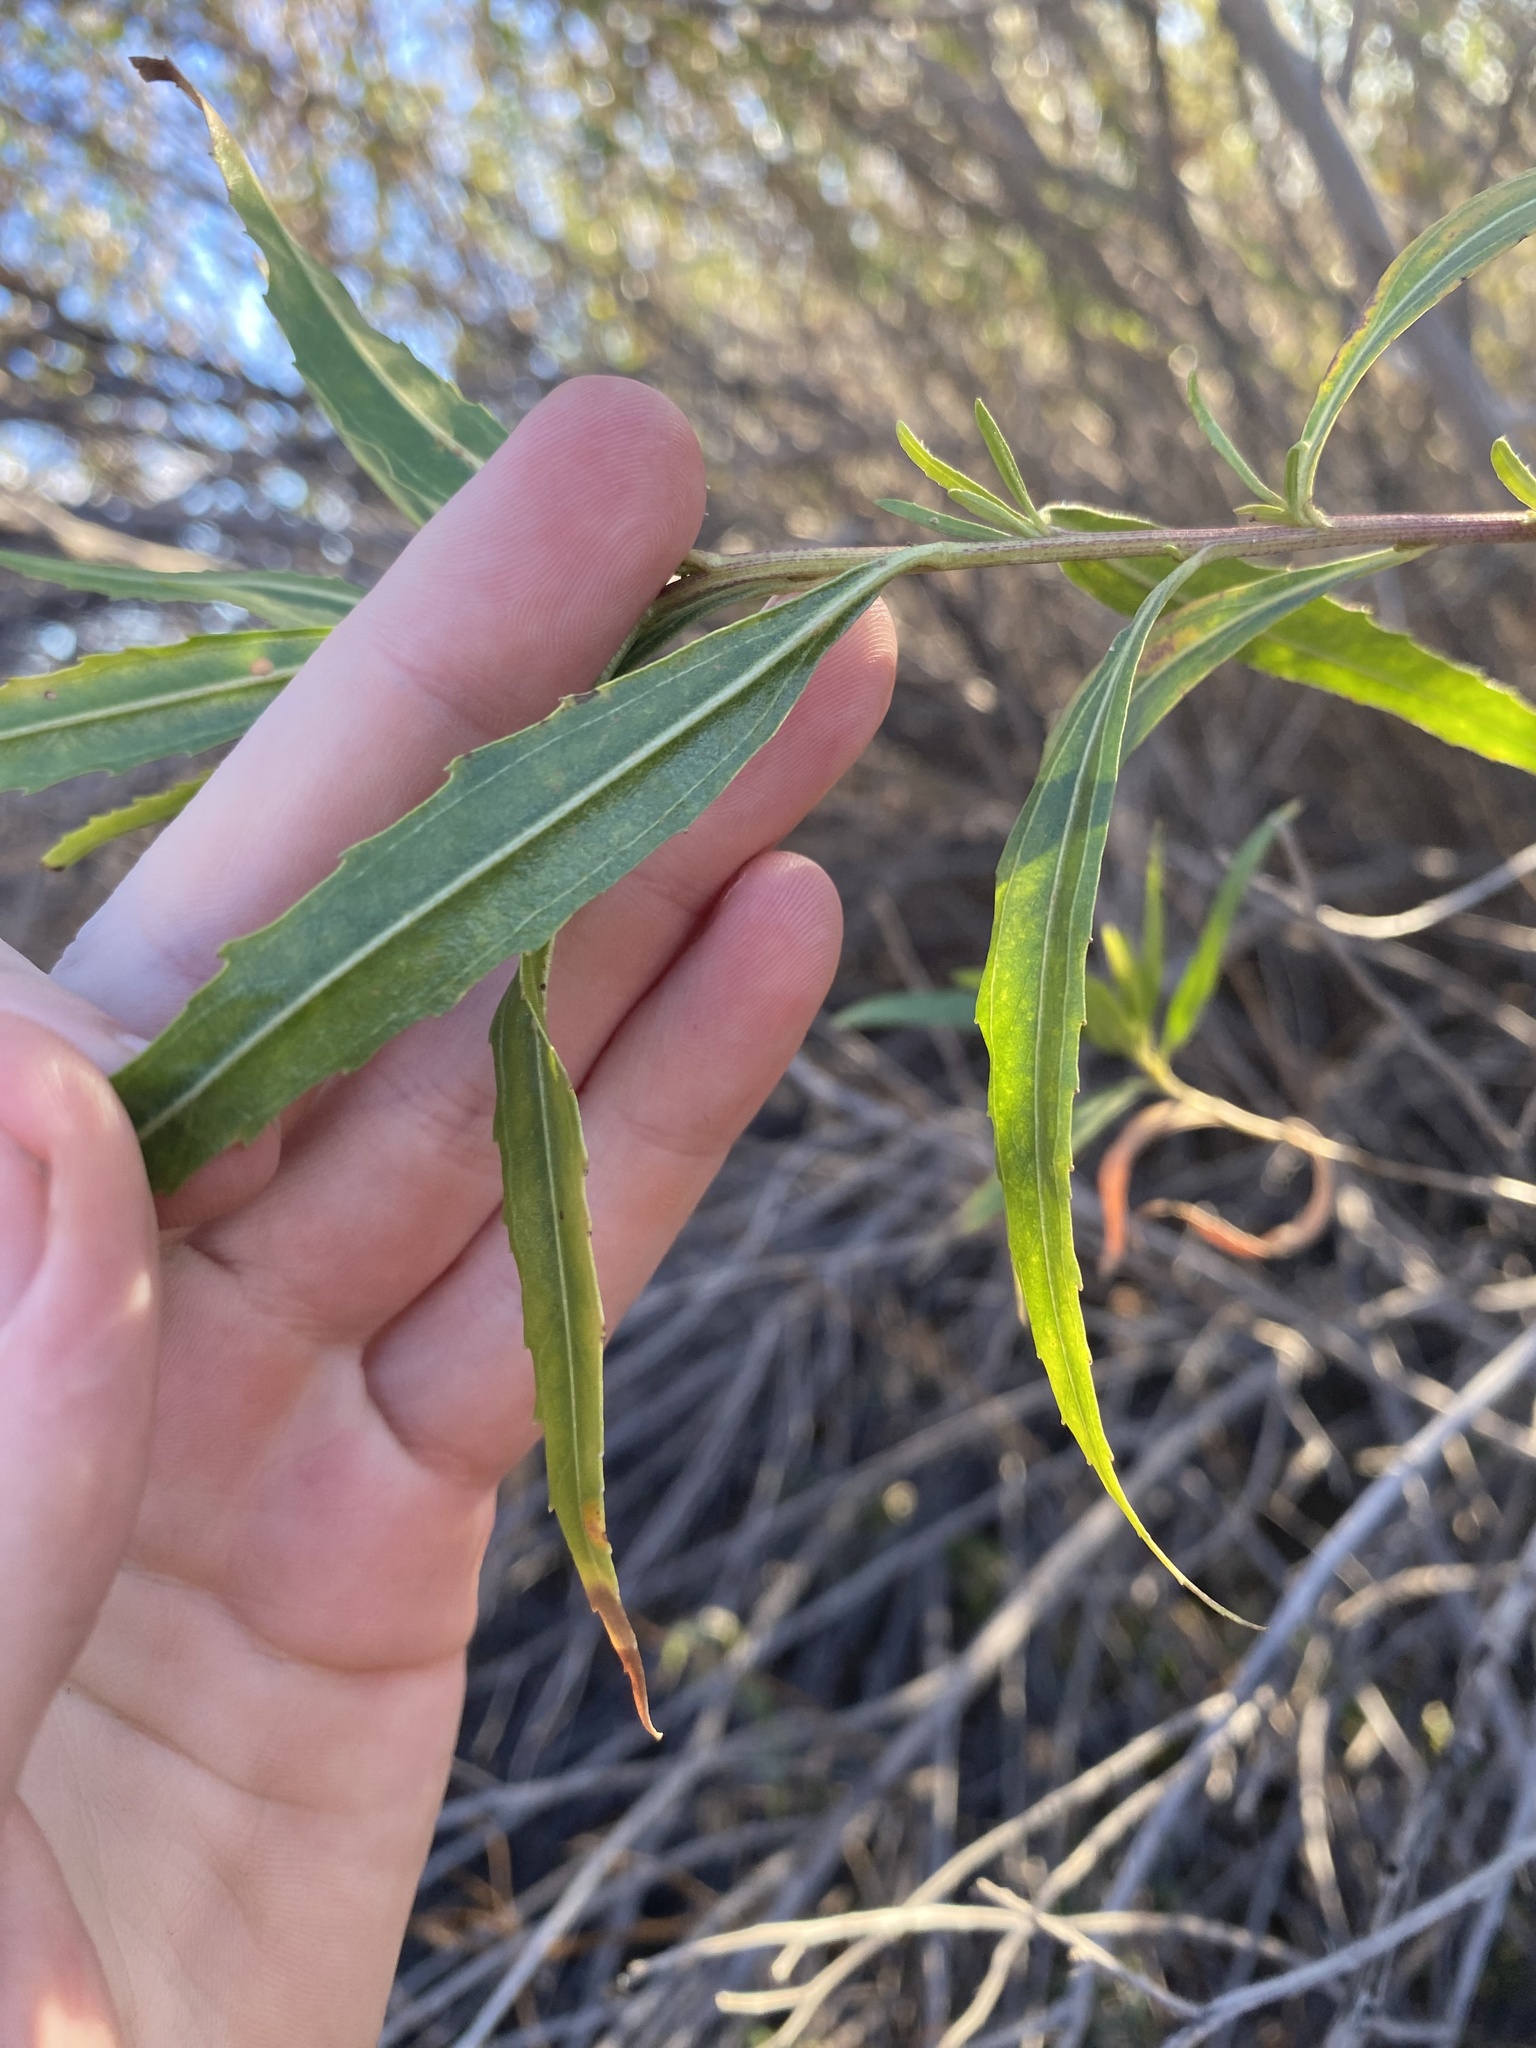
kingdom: Plantae
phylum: Tracheophyta
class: Magnoliopsida
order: Asterales
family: Asteraceae
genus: Baccharis
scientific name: Baccharis salicifolia
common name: Sticky baccharis
